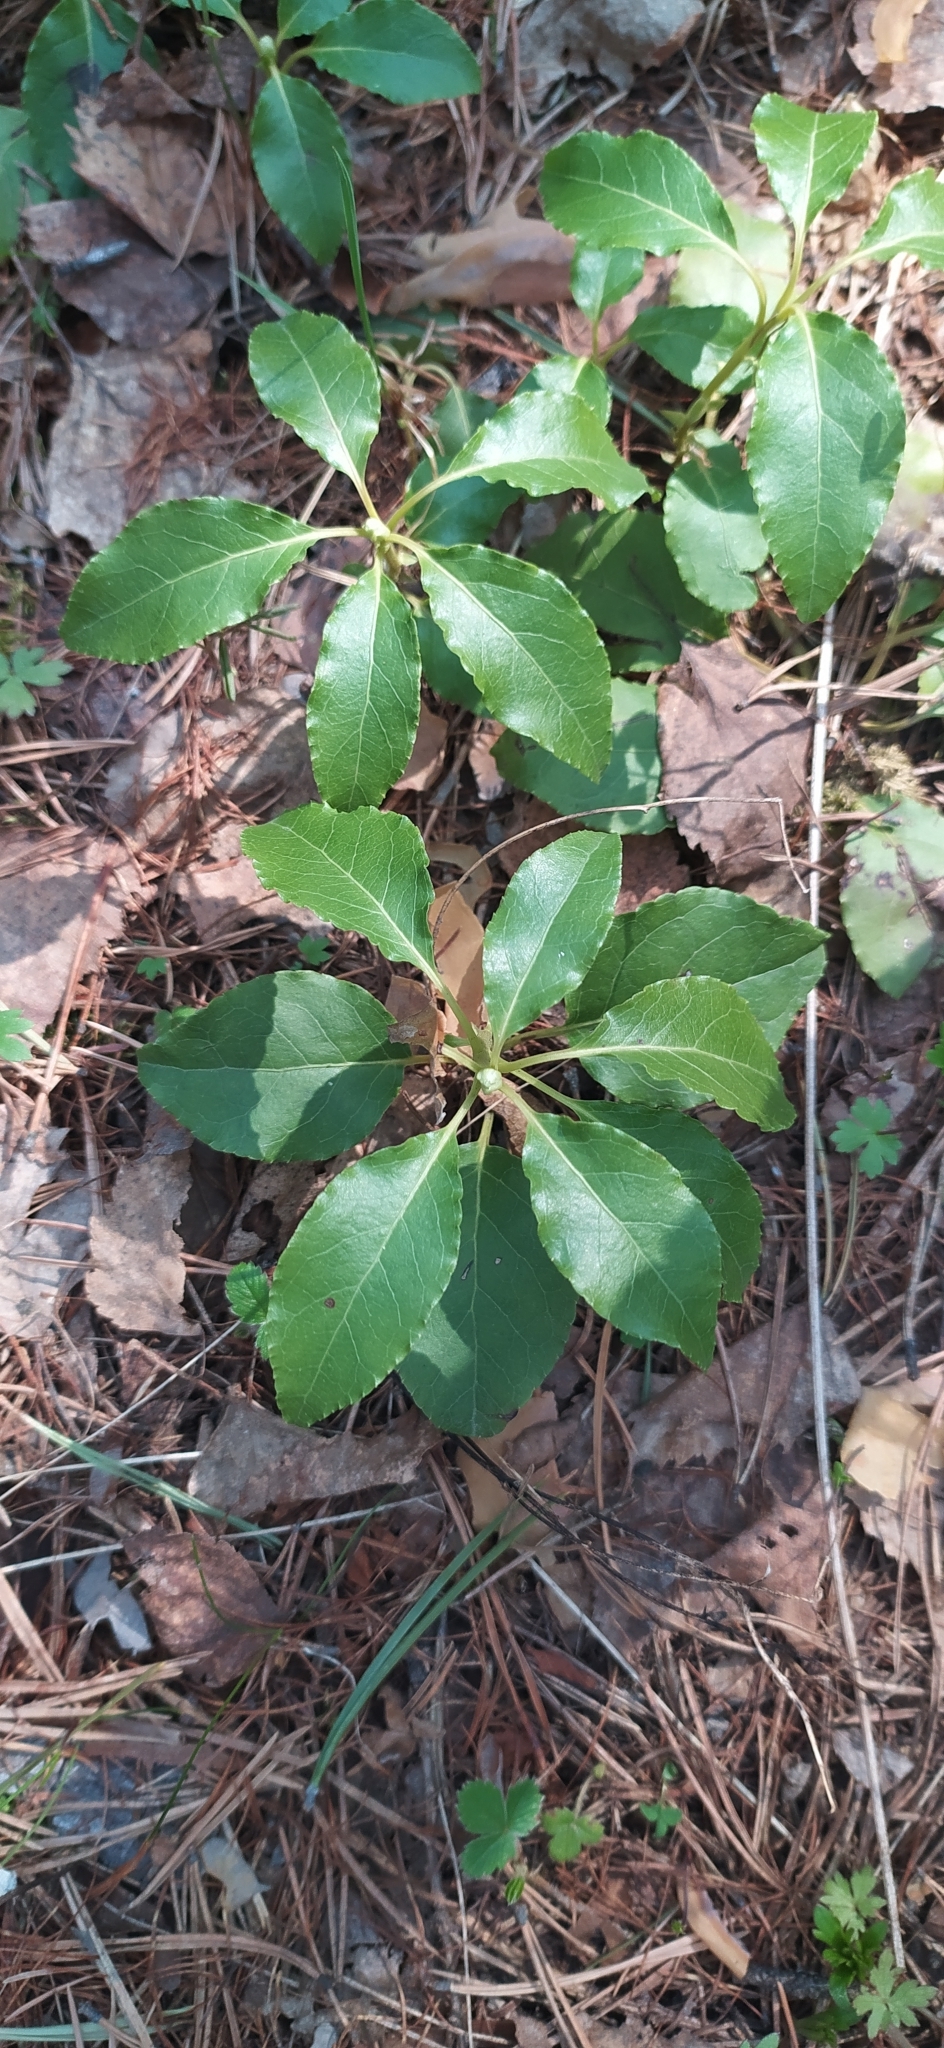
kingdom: Plantae
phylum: Tracheophyta
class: Magnoliopsida
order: Ericales
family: Ericaceae
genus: Orthilia
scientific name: Orthilia secunda
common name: One-sided orthilia
